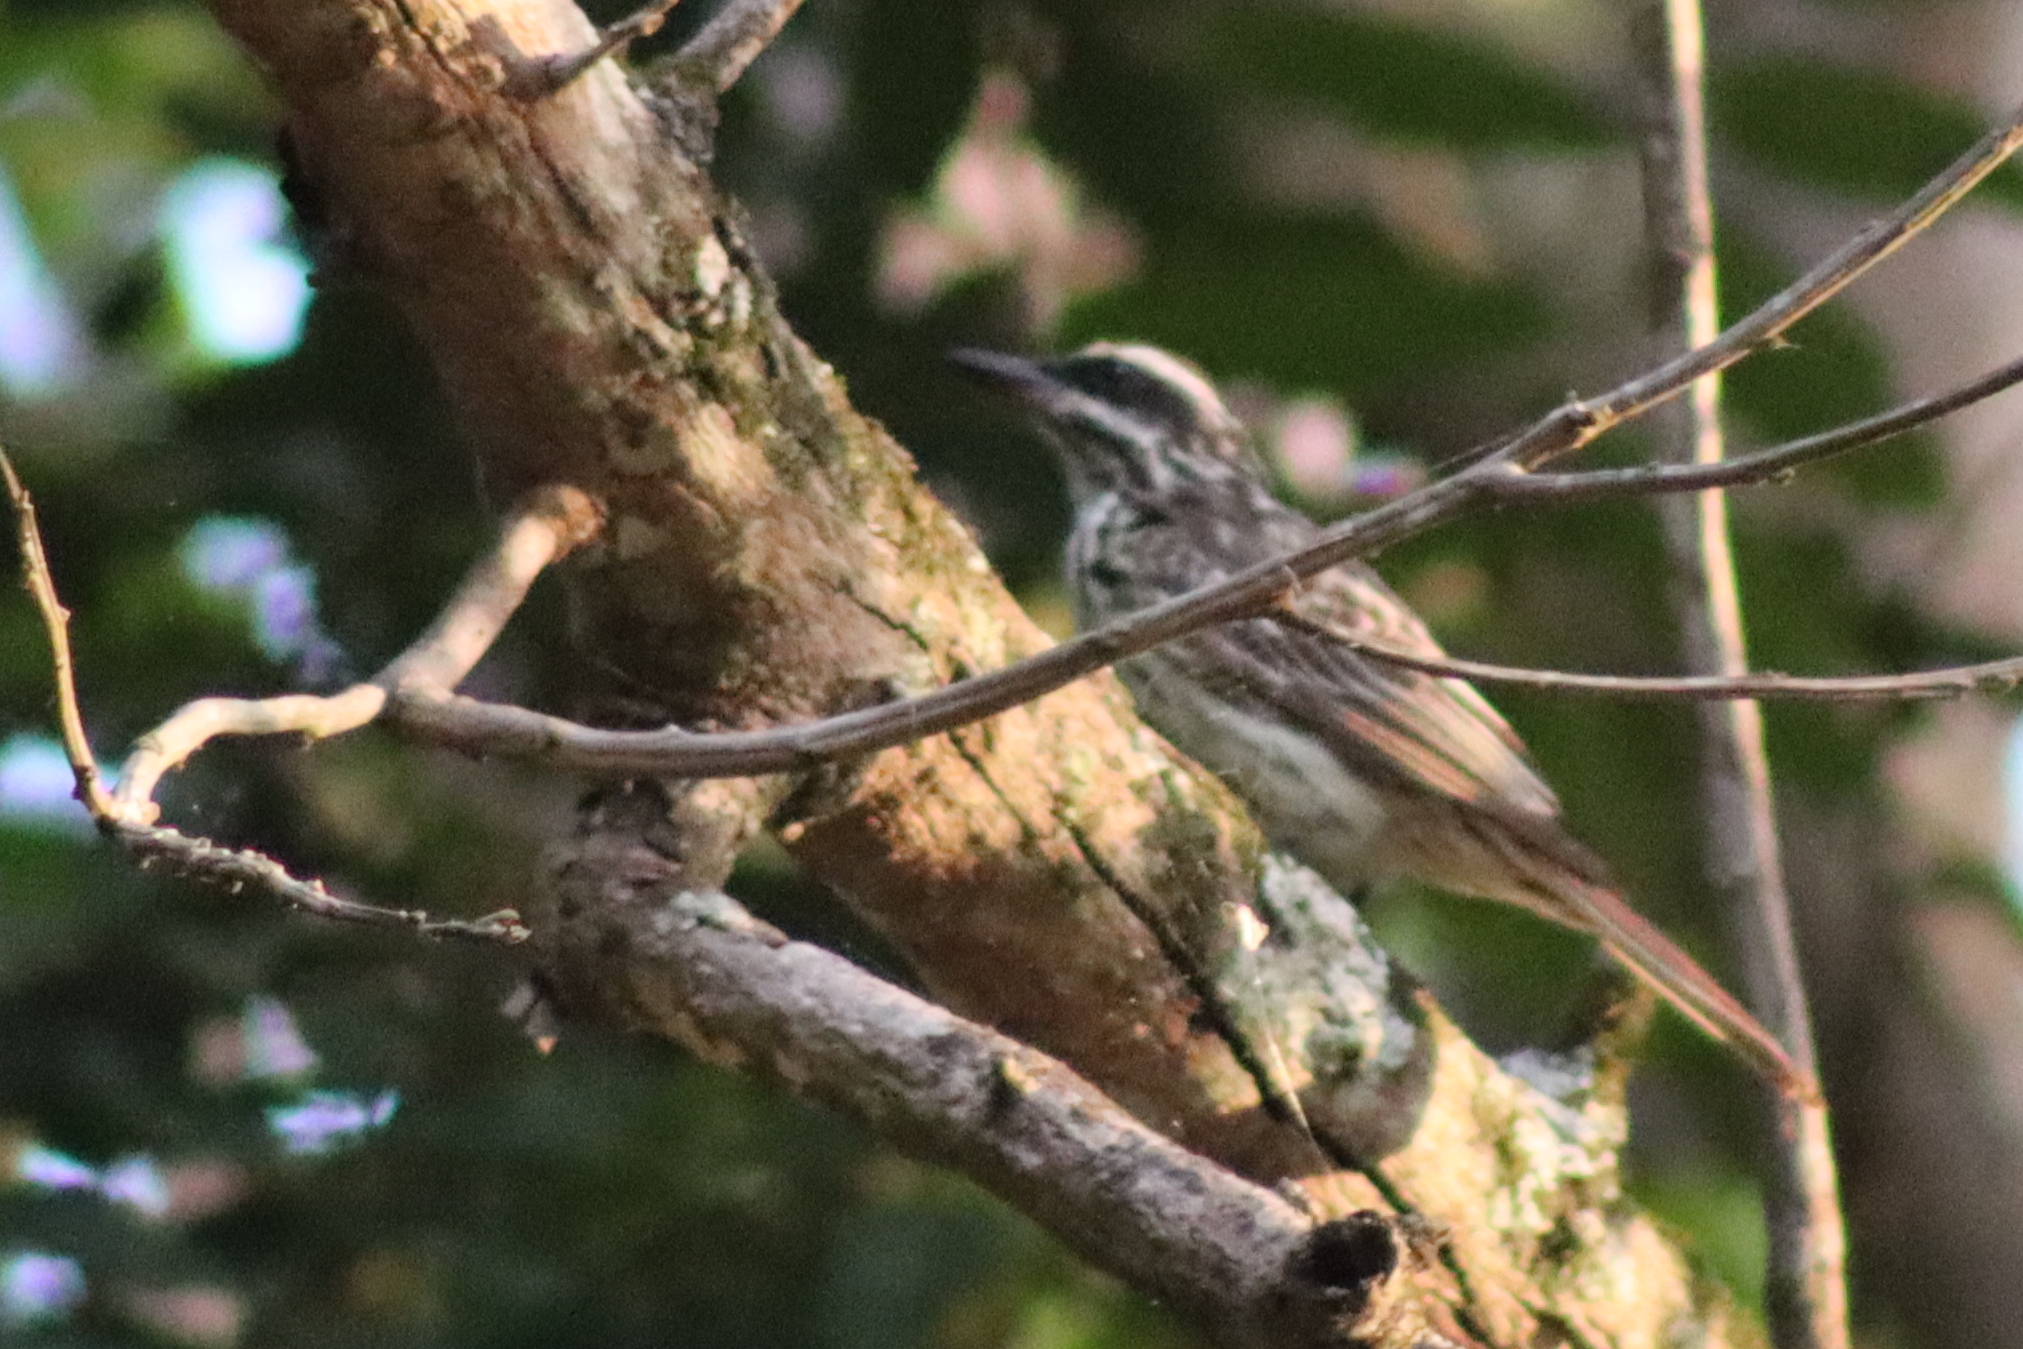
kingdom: Animalia
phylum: Chordata
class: Aves
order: Passeriformes
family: Tyrannidae
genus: Myiodynastes
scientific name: Myiodynastes maculatus
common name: Streaked flycatcher
